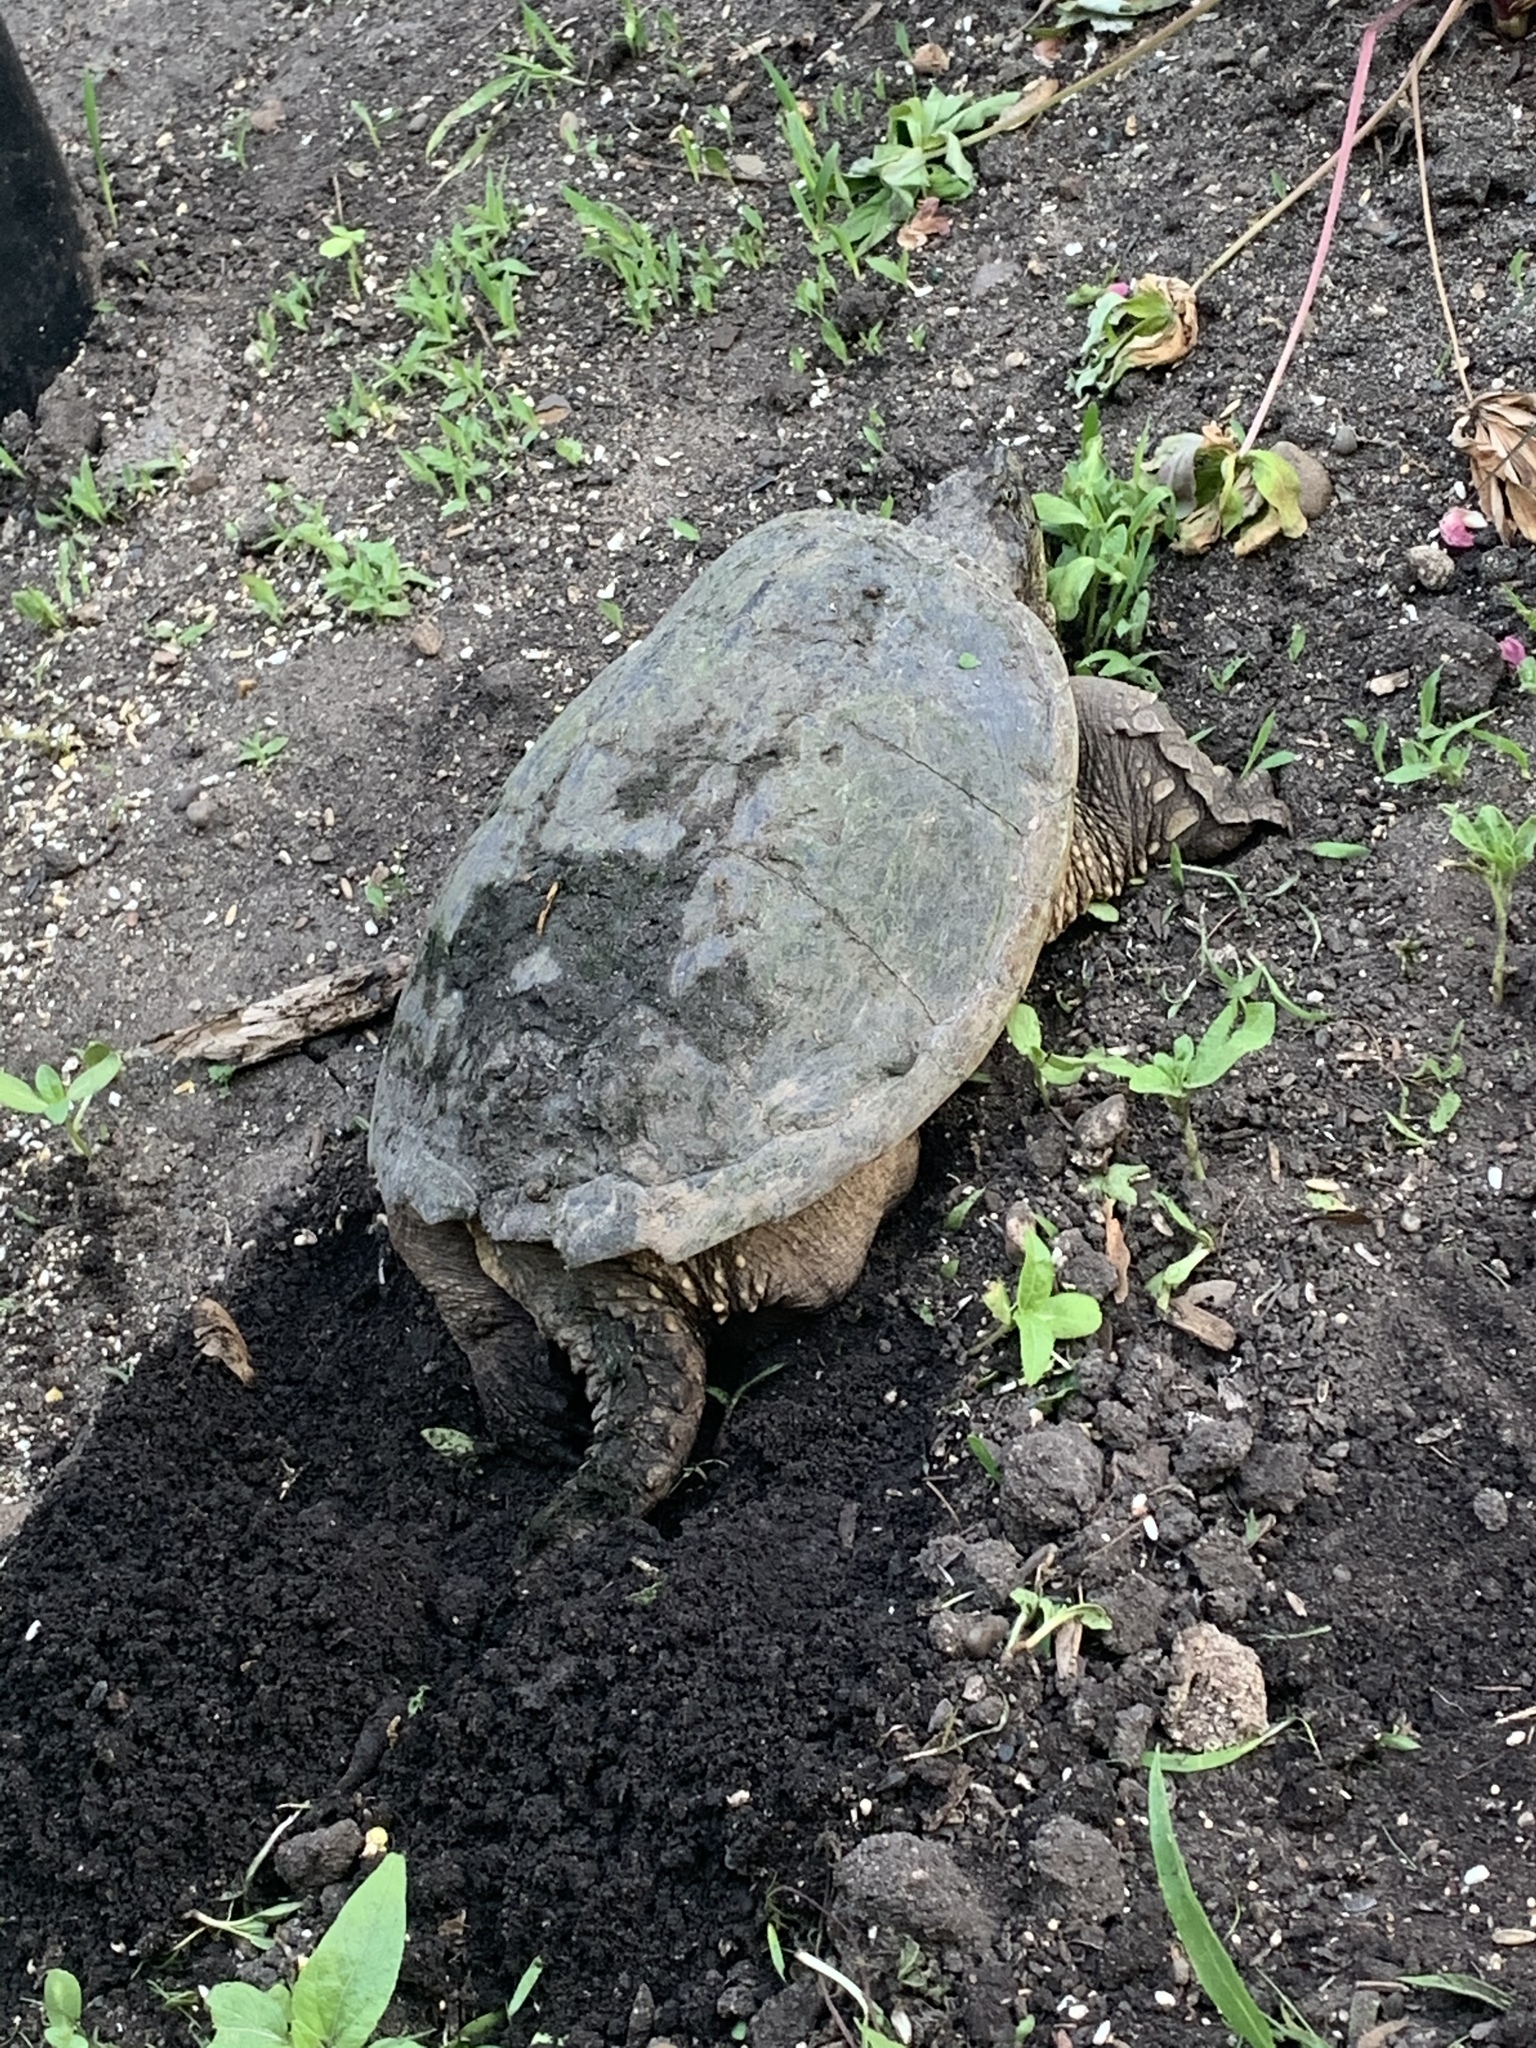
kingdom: Animalia
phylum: Chordata
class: Testudines
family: Chelydridae
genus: Chelydra
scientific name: Chelydra serpentina
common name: Common snapping turtle
